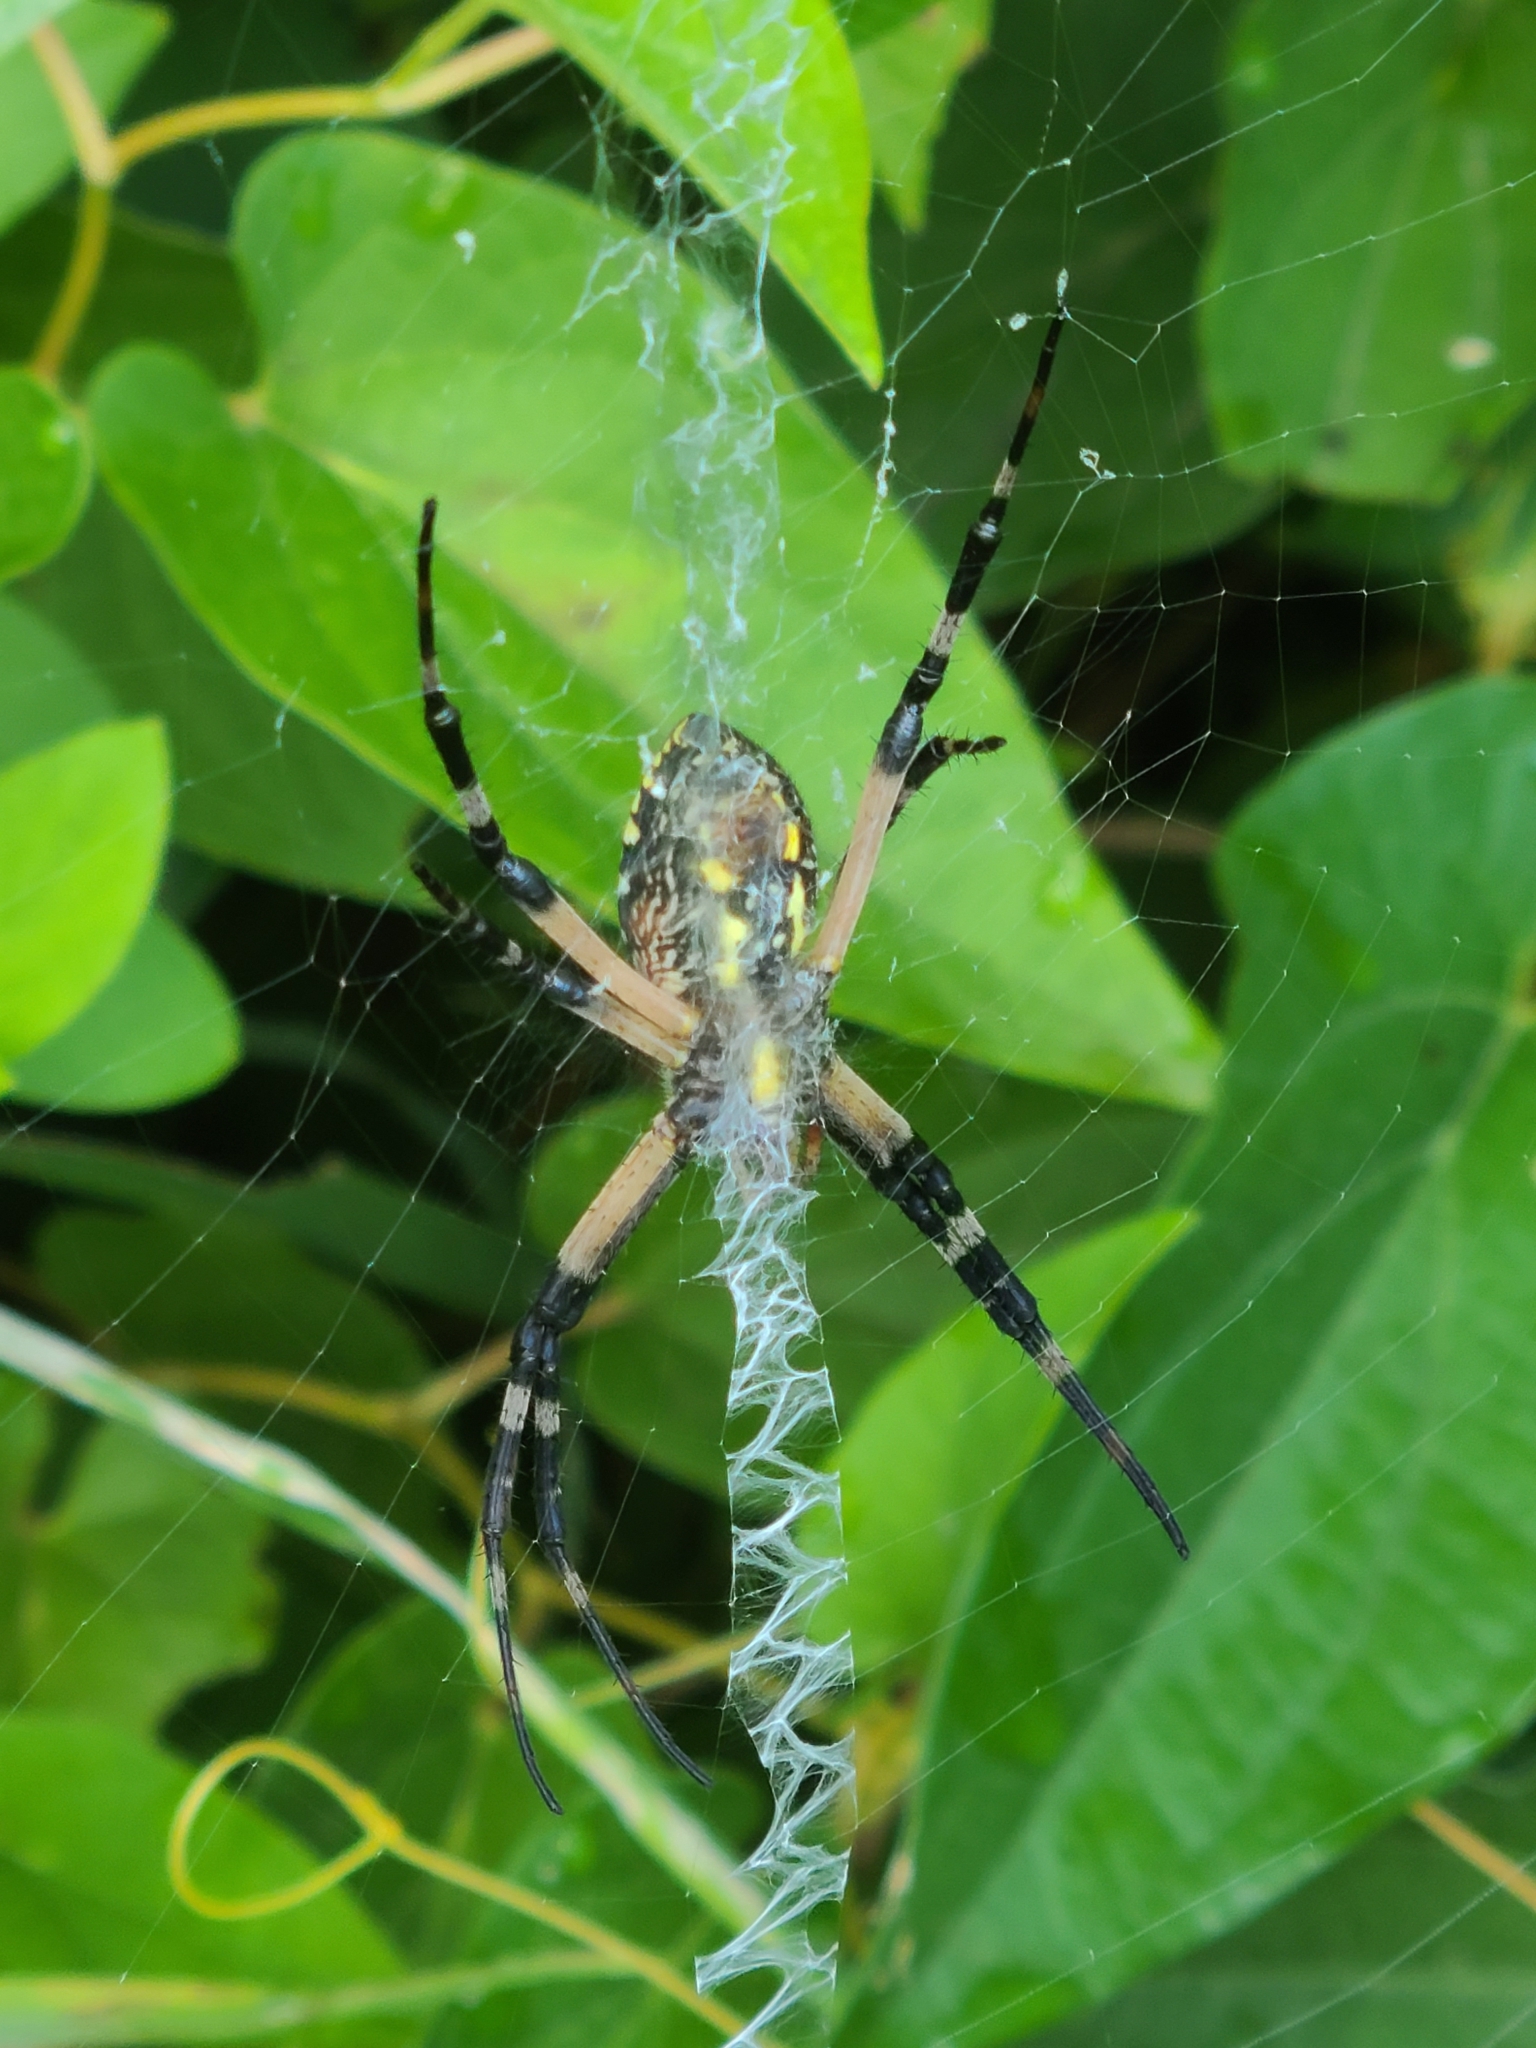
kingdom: Animalia
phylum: Arthropoda
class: Arachnida
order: Araneae
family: Araneidae
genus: Argiope
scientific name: Argiope aurantia
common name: Orb weavers
